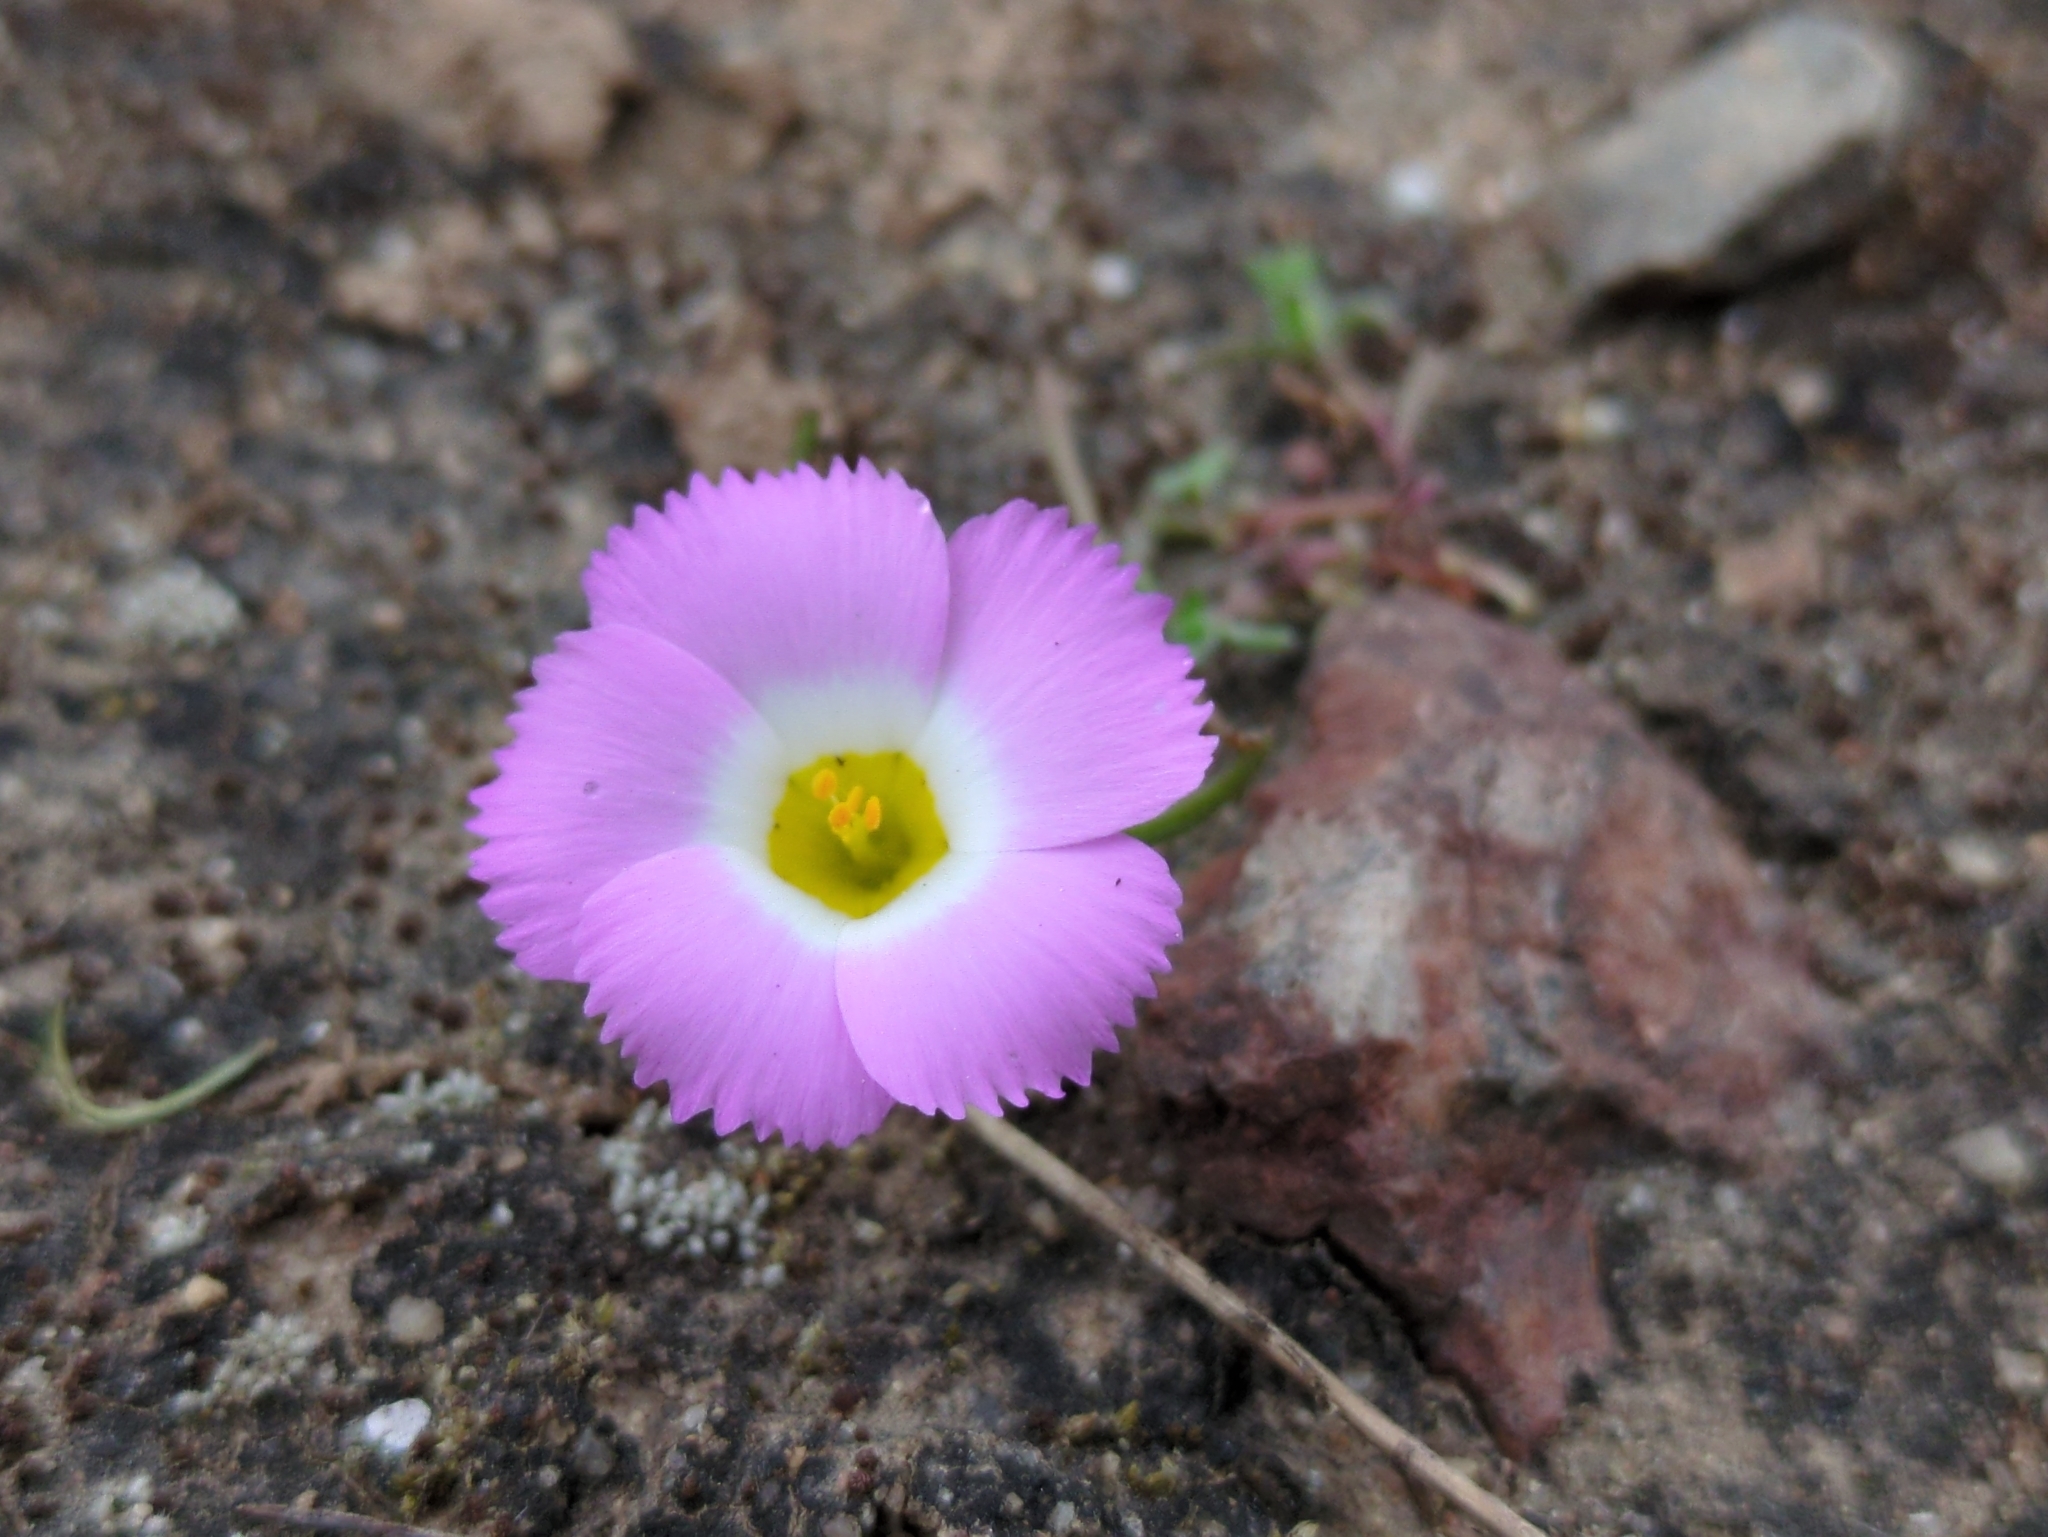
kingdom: Plantae
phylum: Tracheophyta
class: Magnoliopsida
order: Ericales
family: Polemoniaceae
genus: Linanthus
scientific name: Linanthus dianthiflorus
